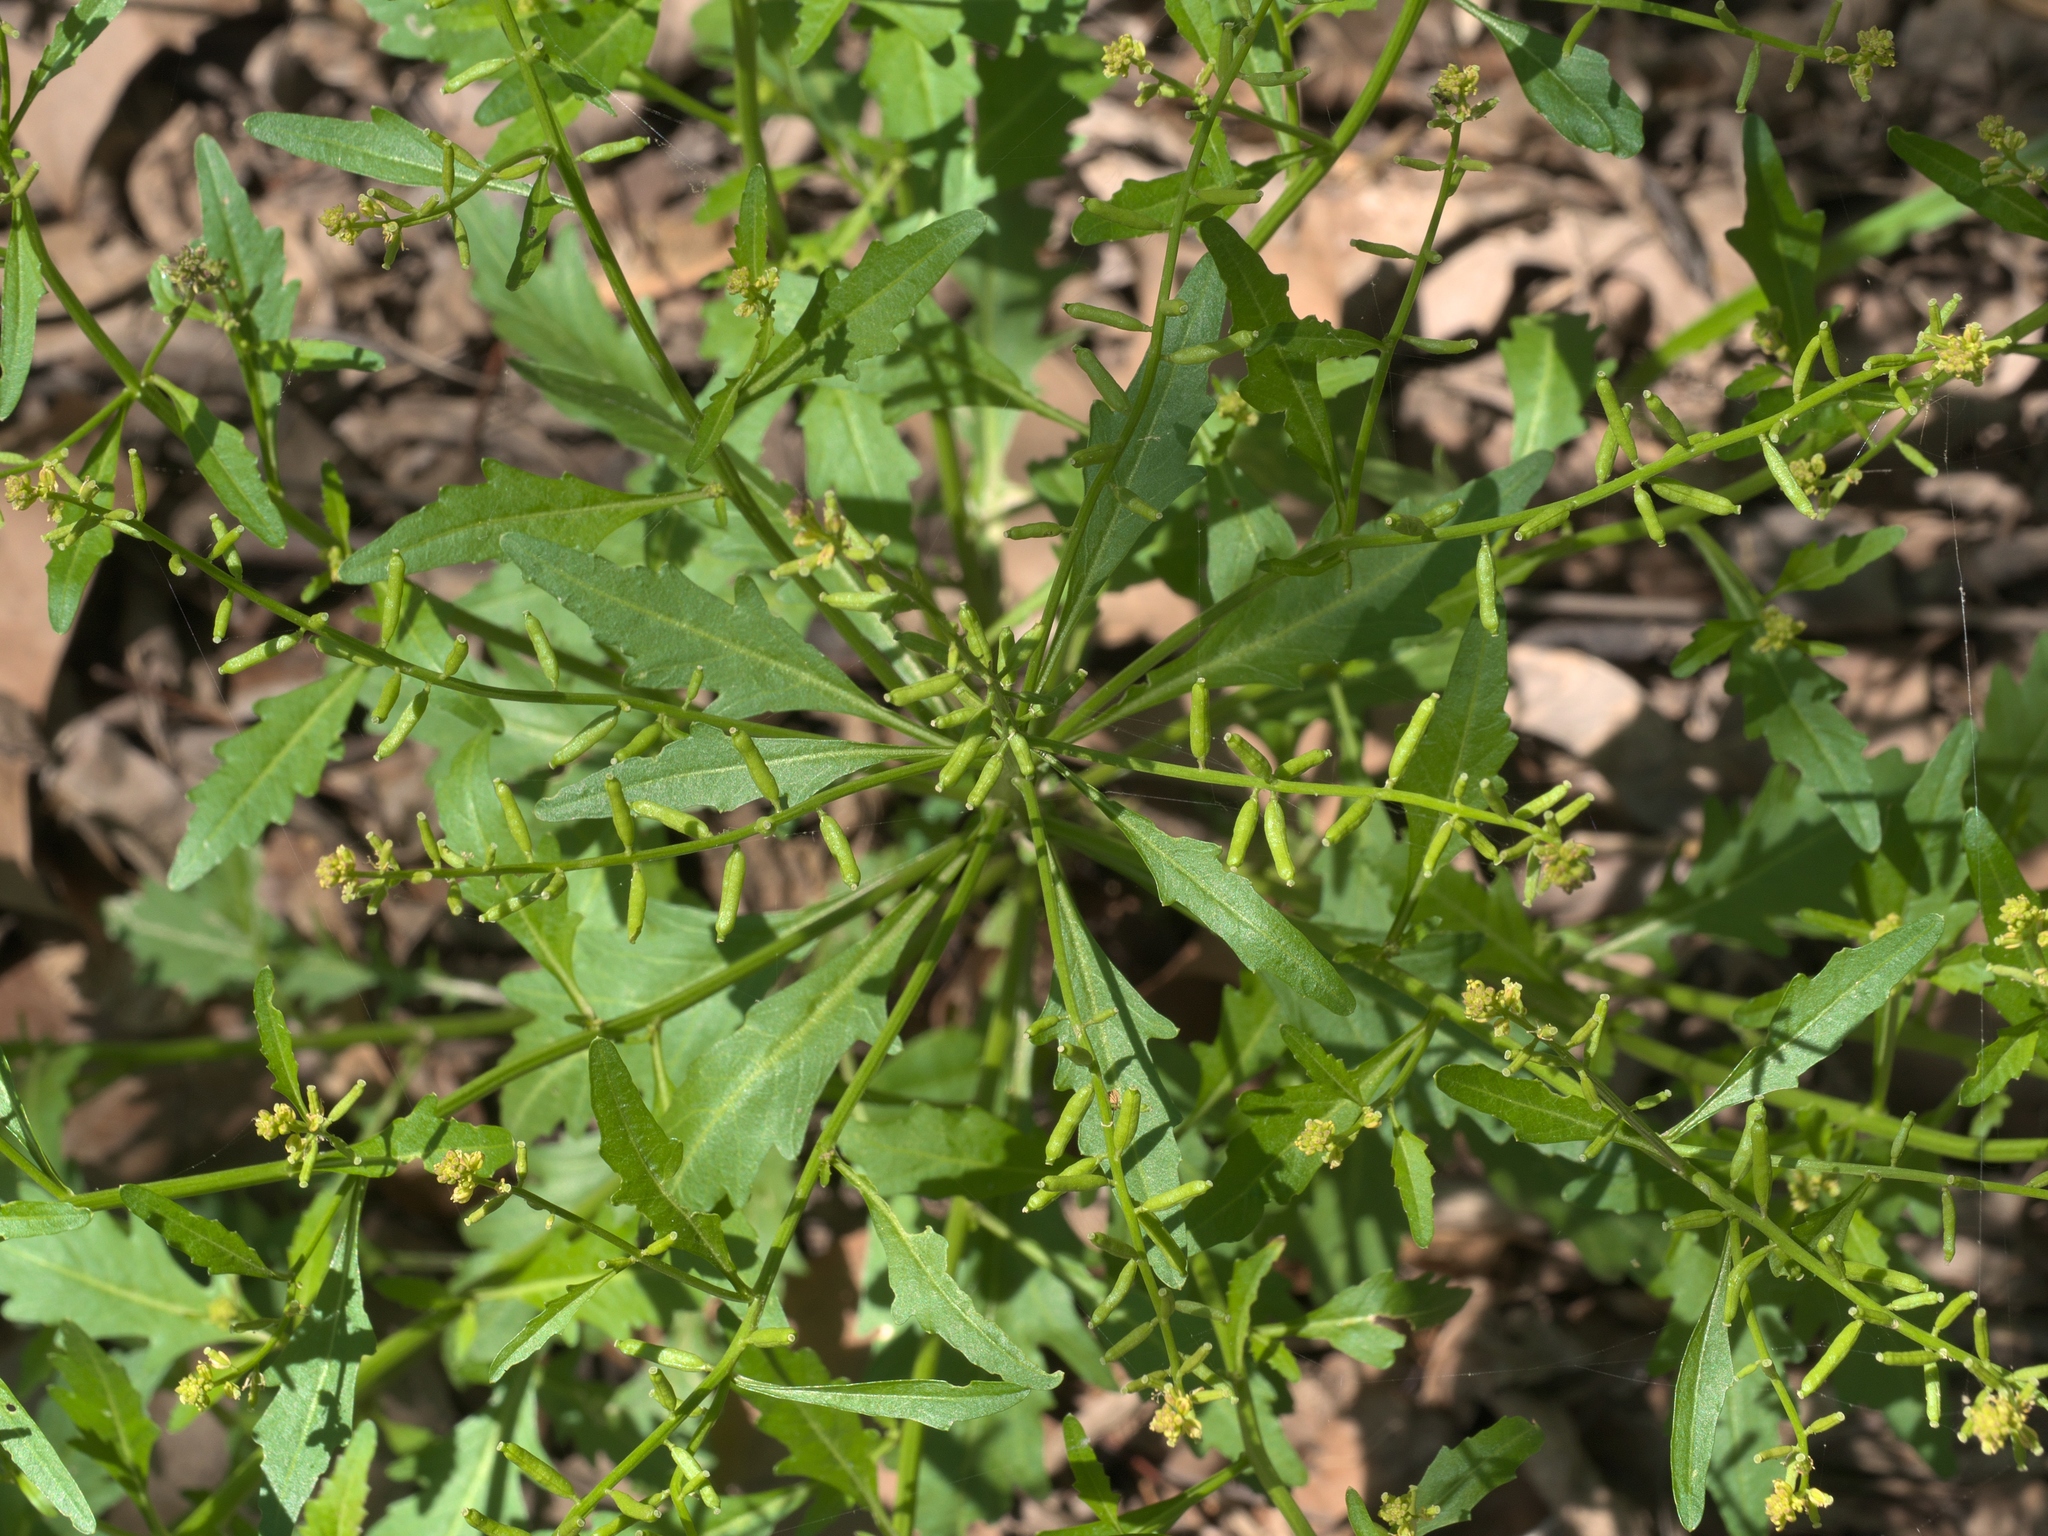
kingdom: Plantae
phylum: Tracheophyta
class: Magnoliopsida
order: Brassicales
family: Brassicaceae
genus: Rorippa
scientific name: Rorippa sessiliflora
